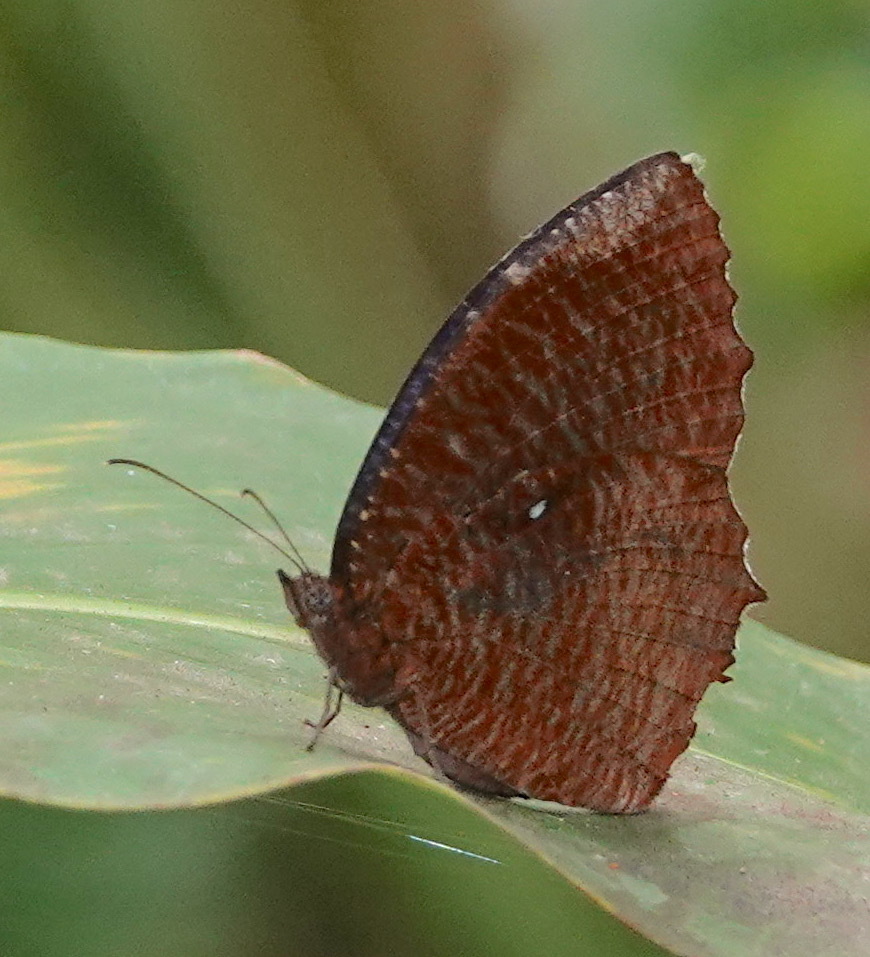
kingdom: Animalia
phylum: Arthropoda
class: Insecta
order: Lepidoptera
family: Nymphalidae
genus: Elymnias
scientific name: Elymnias hypermnestra
